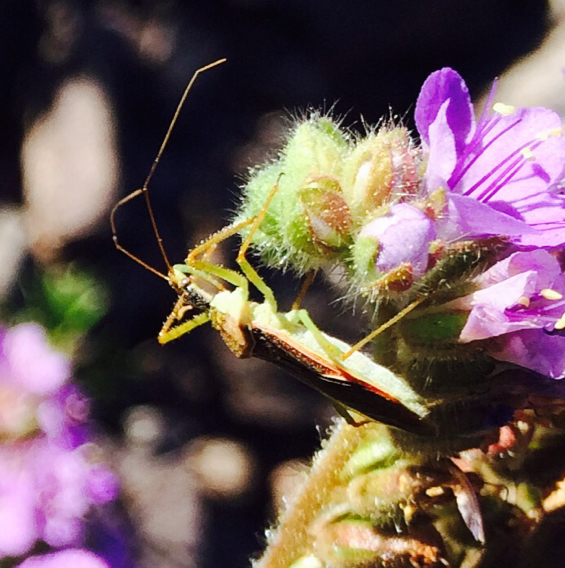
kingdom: Animalia
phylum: Arthropoda
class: Insecta
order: Hemiptera
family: Reduviidae
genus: Zelus
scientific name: Zelus renardii
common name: Assassin bug
